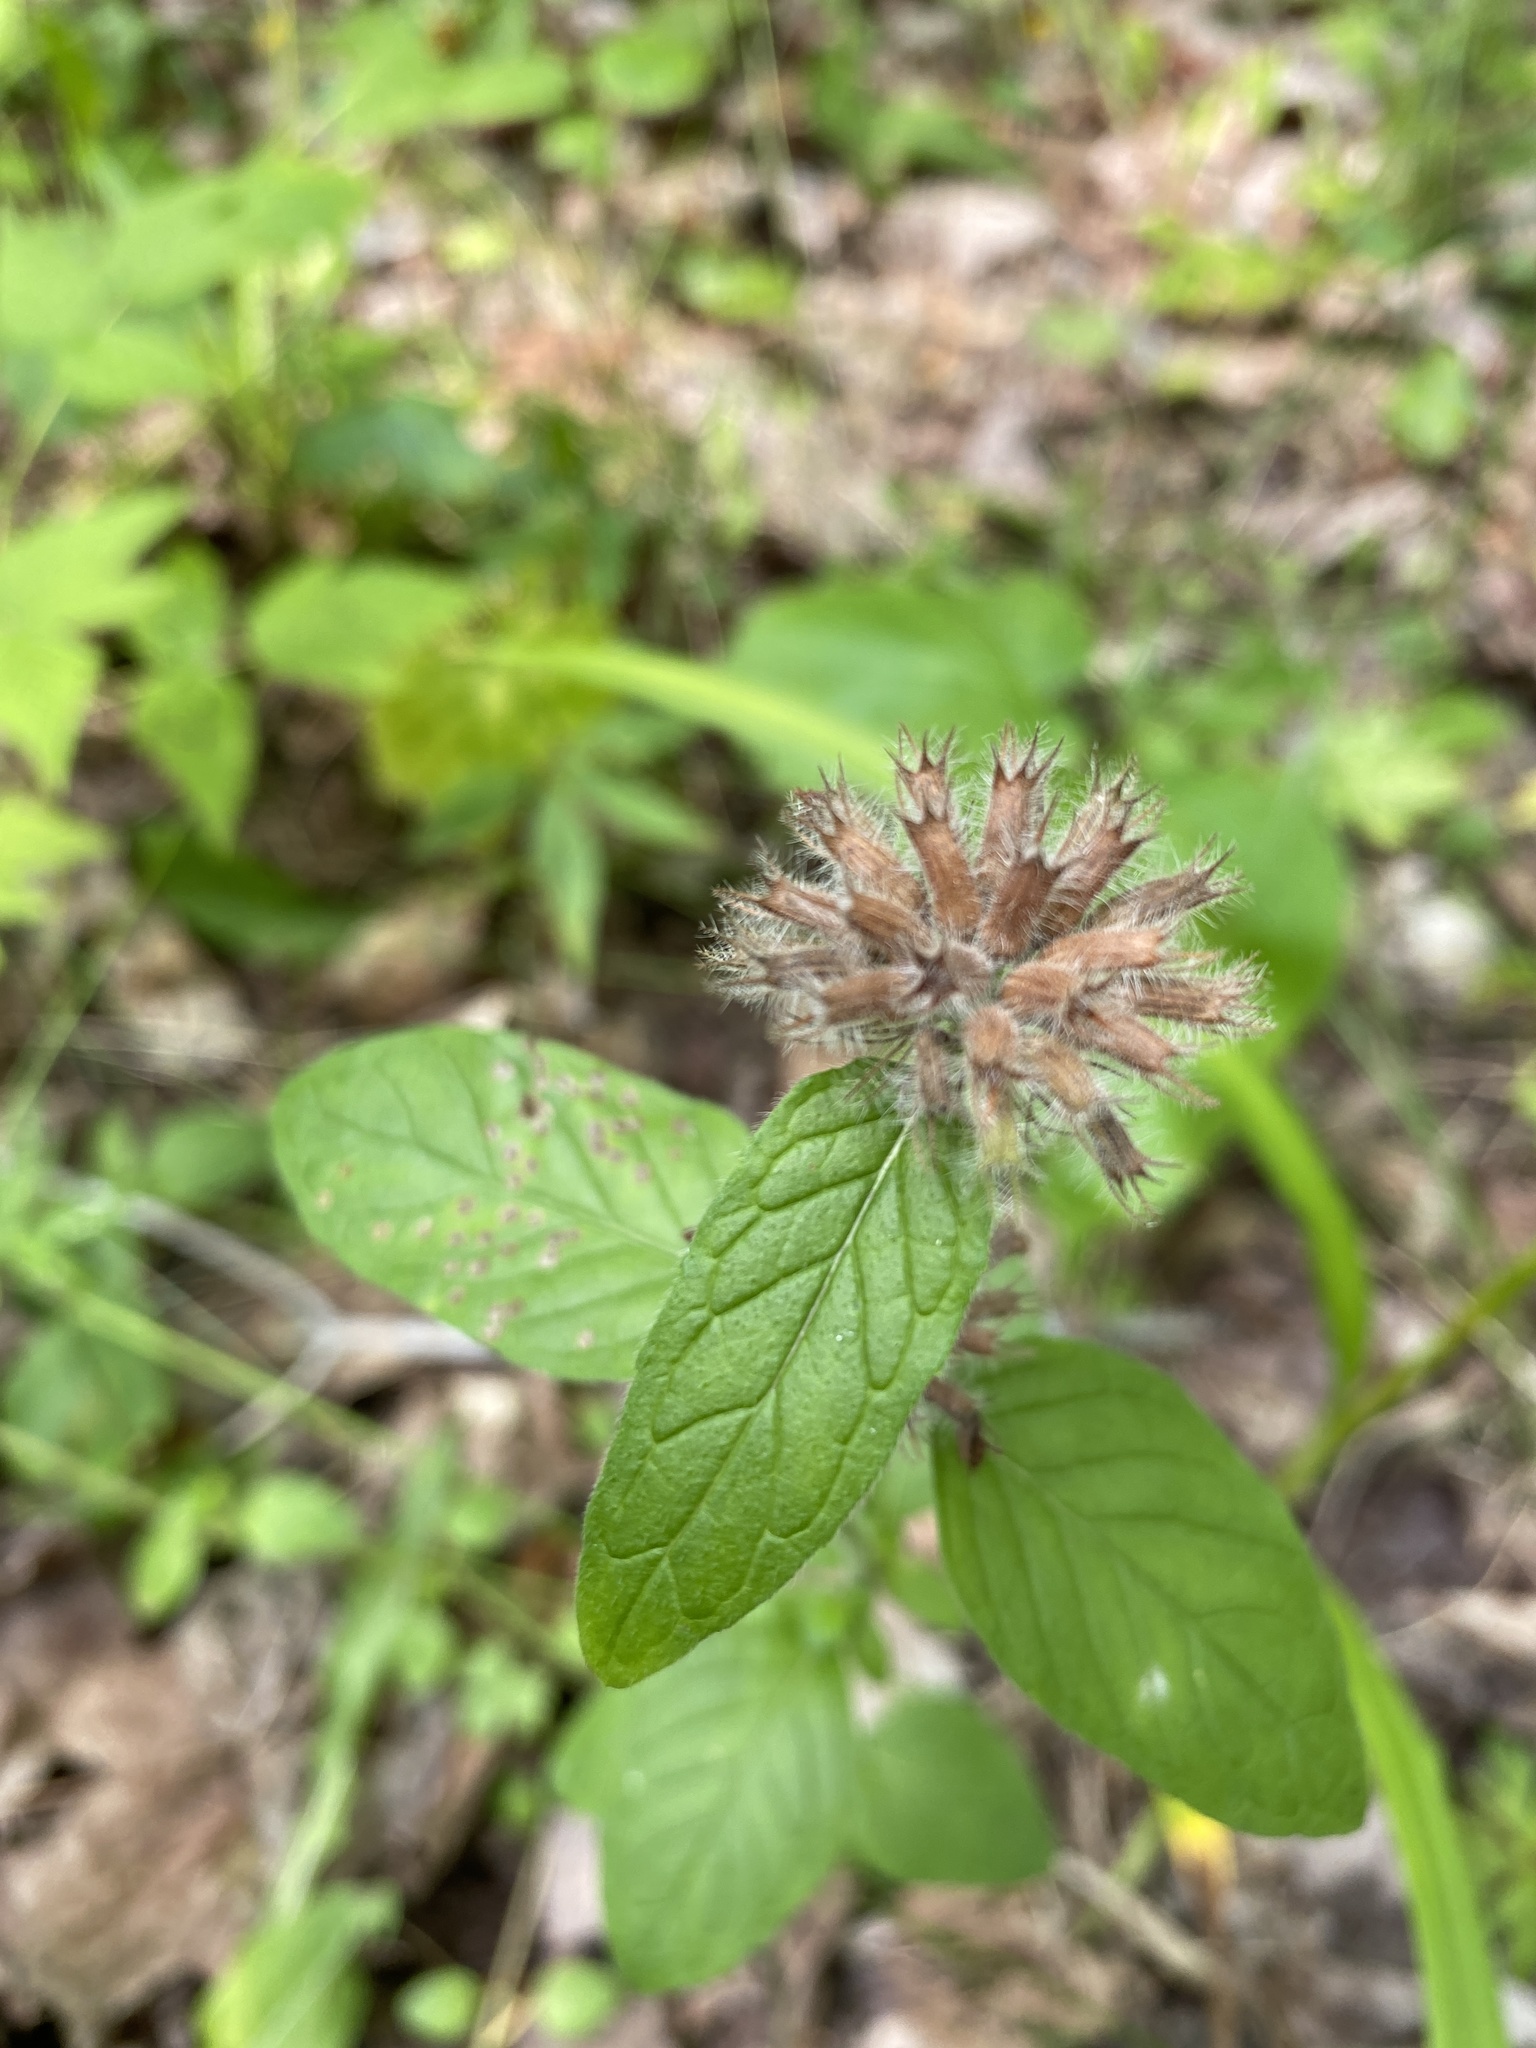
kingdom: Plantae
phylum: Tracheophyta
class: Magnoliopsida
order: Lamiales
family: Lamiaceae
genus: Clinopodium
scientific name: Clinopodium vulgare
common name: Wild basil
